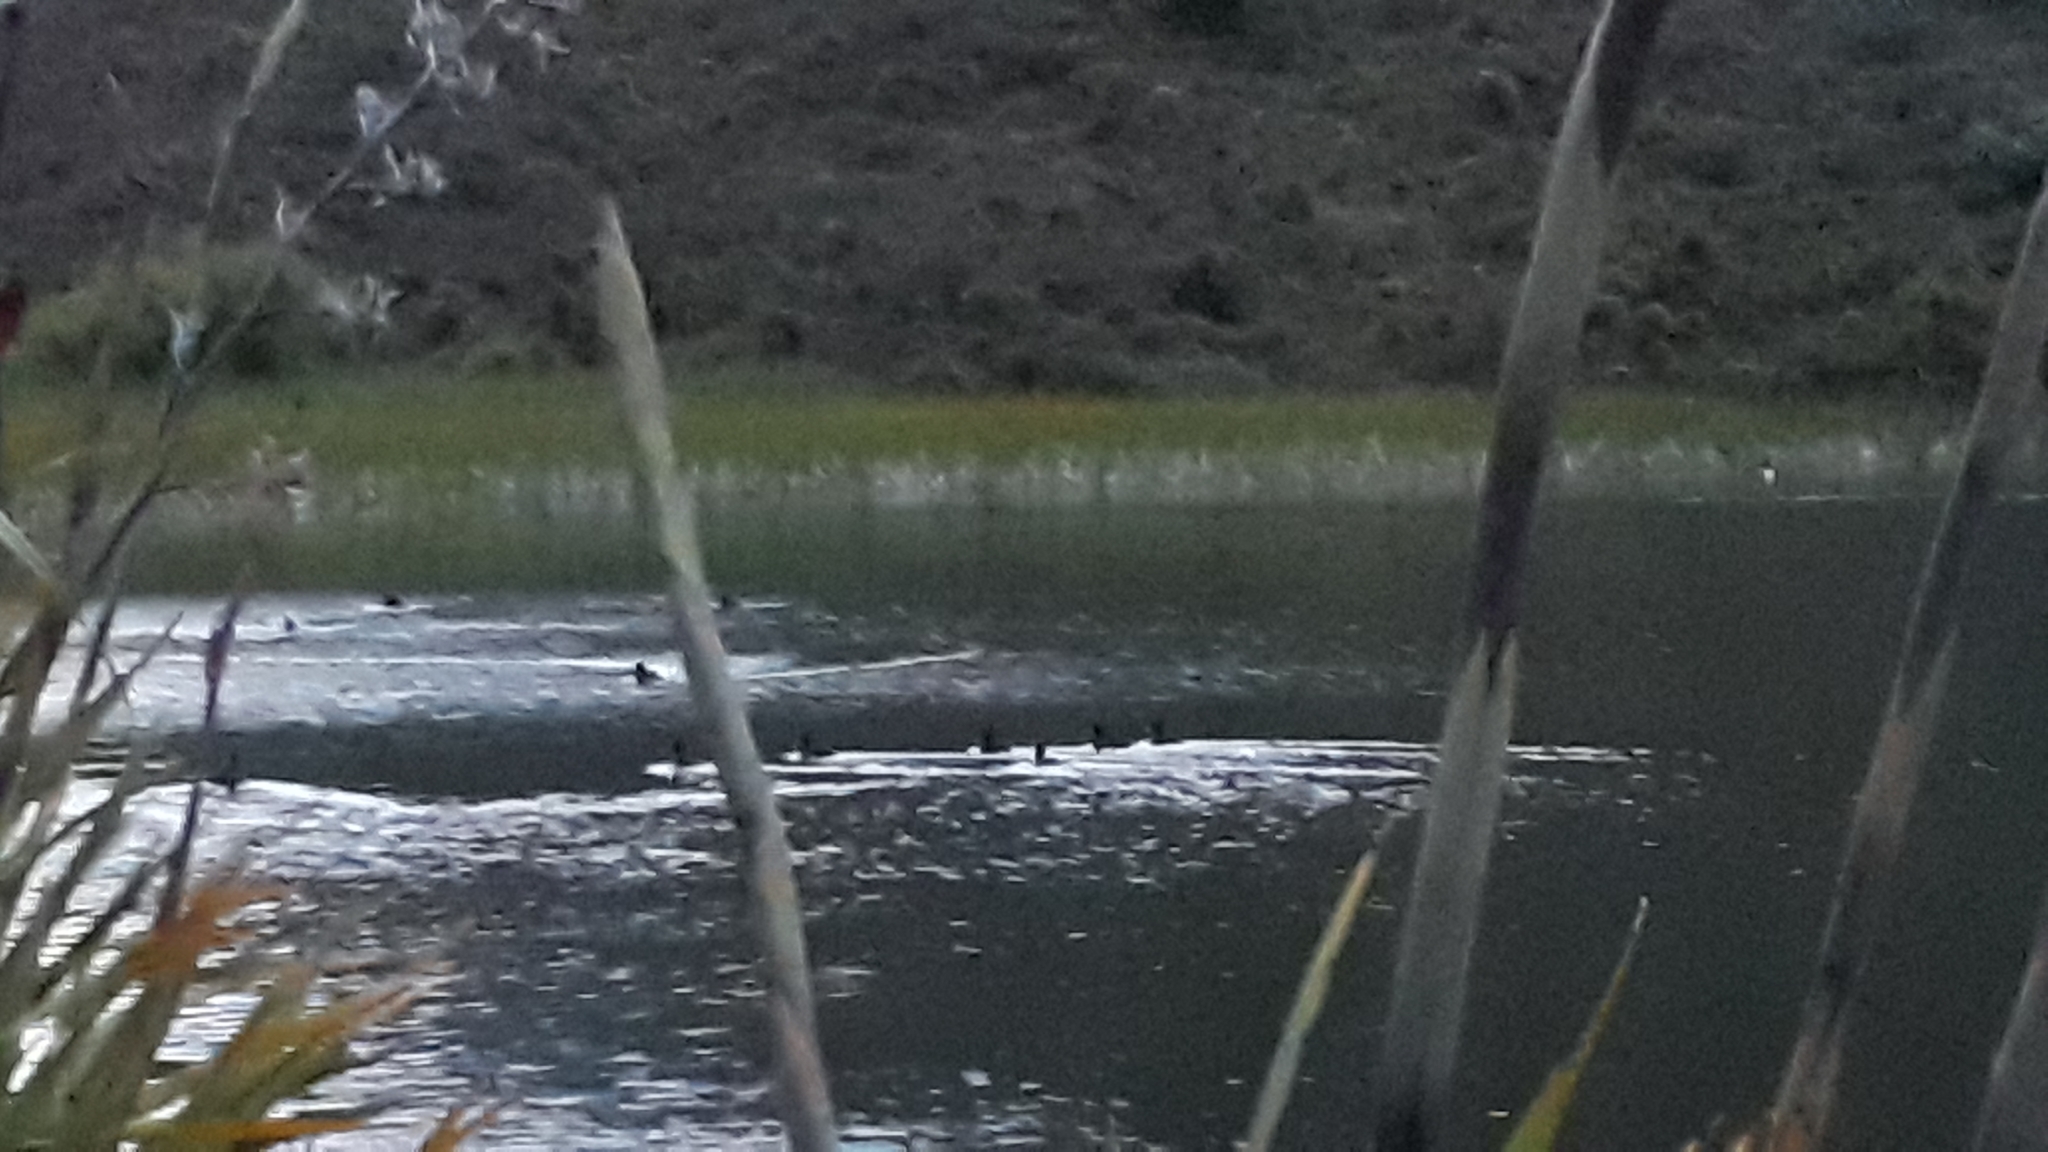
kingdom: Animalia
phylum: Chordata
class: Aves
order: Anseriformes
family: Anatidae
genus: Aythya
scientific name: Aythya novaeseelandiae
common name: New zealand scaup
